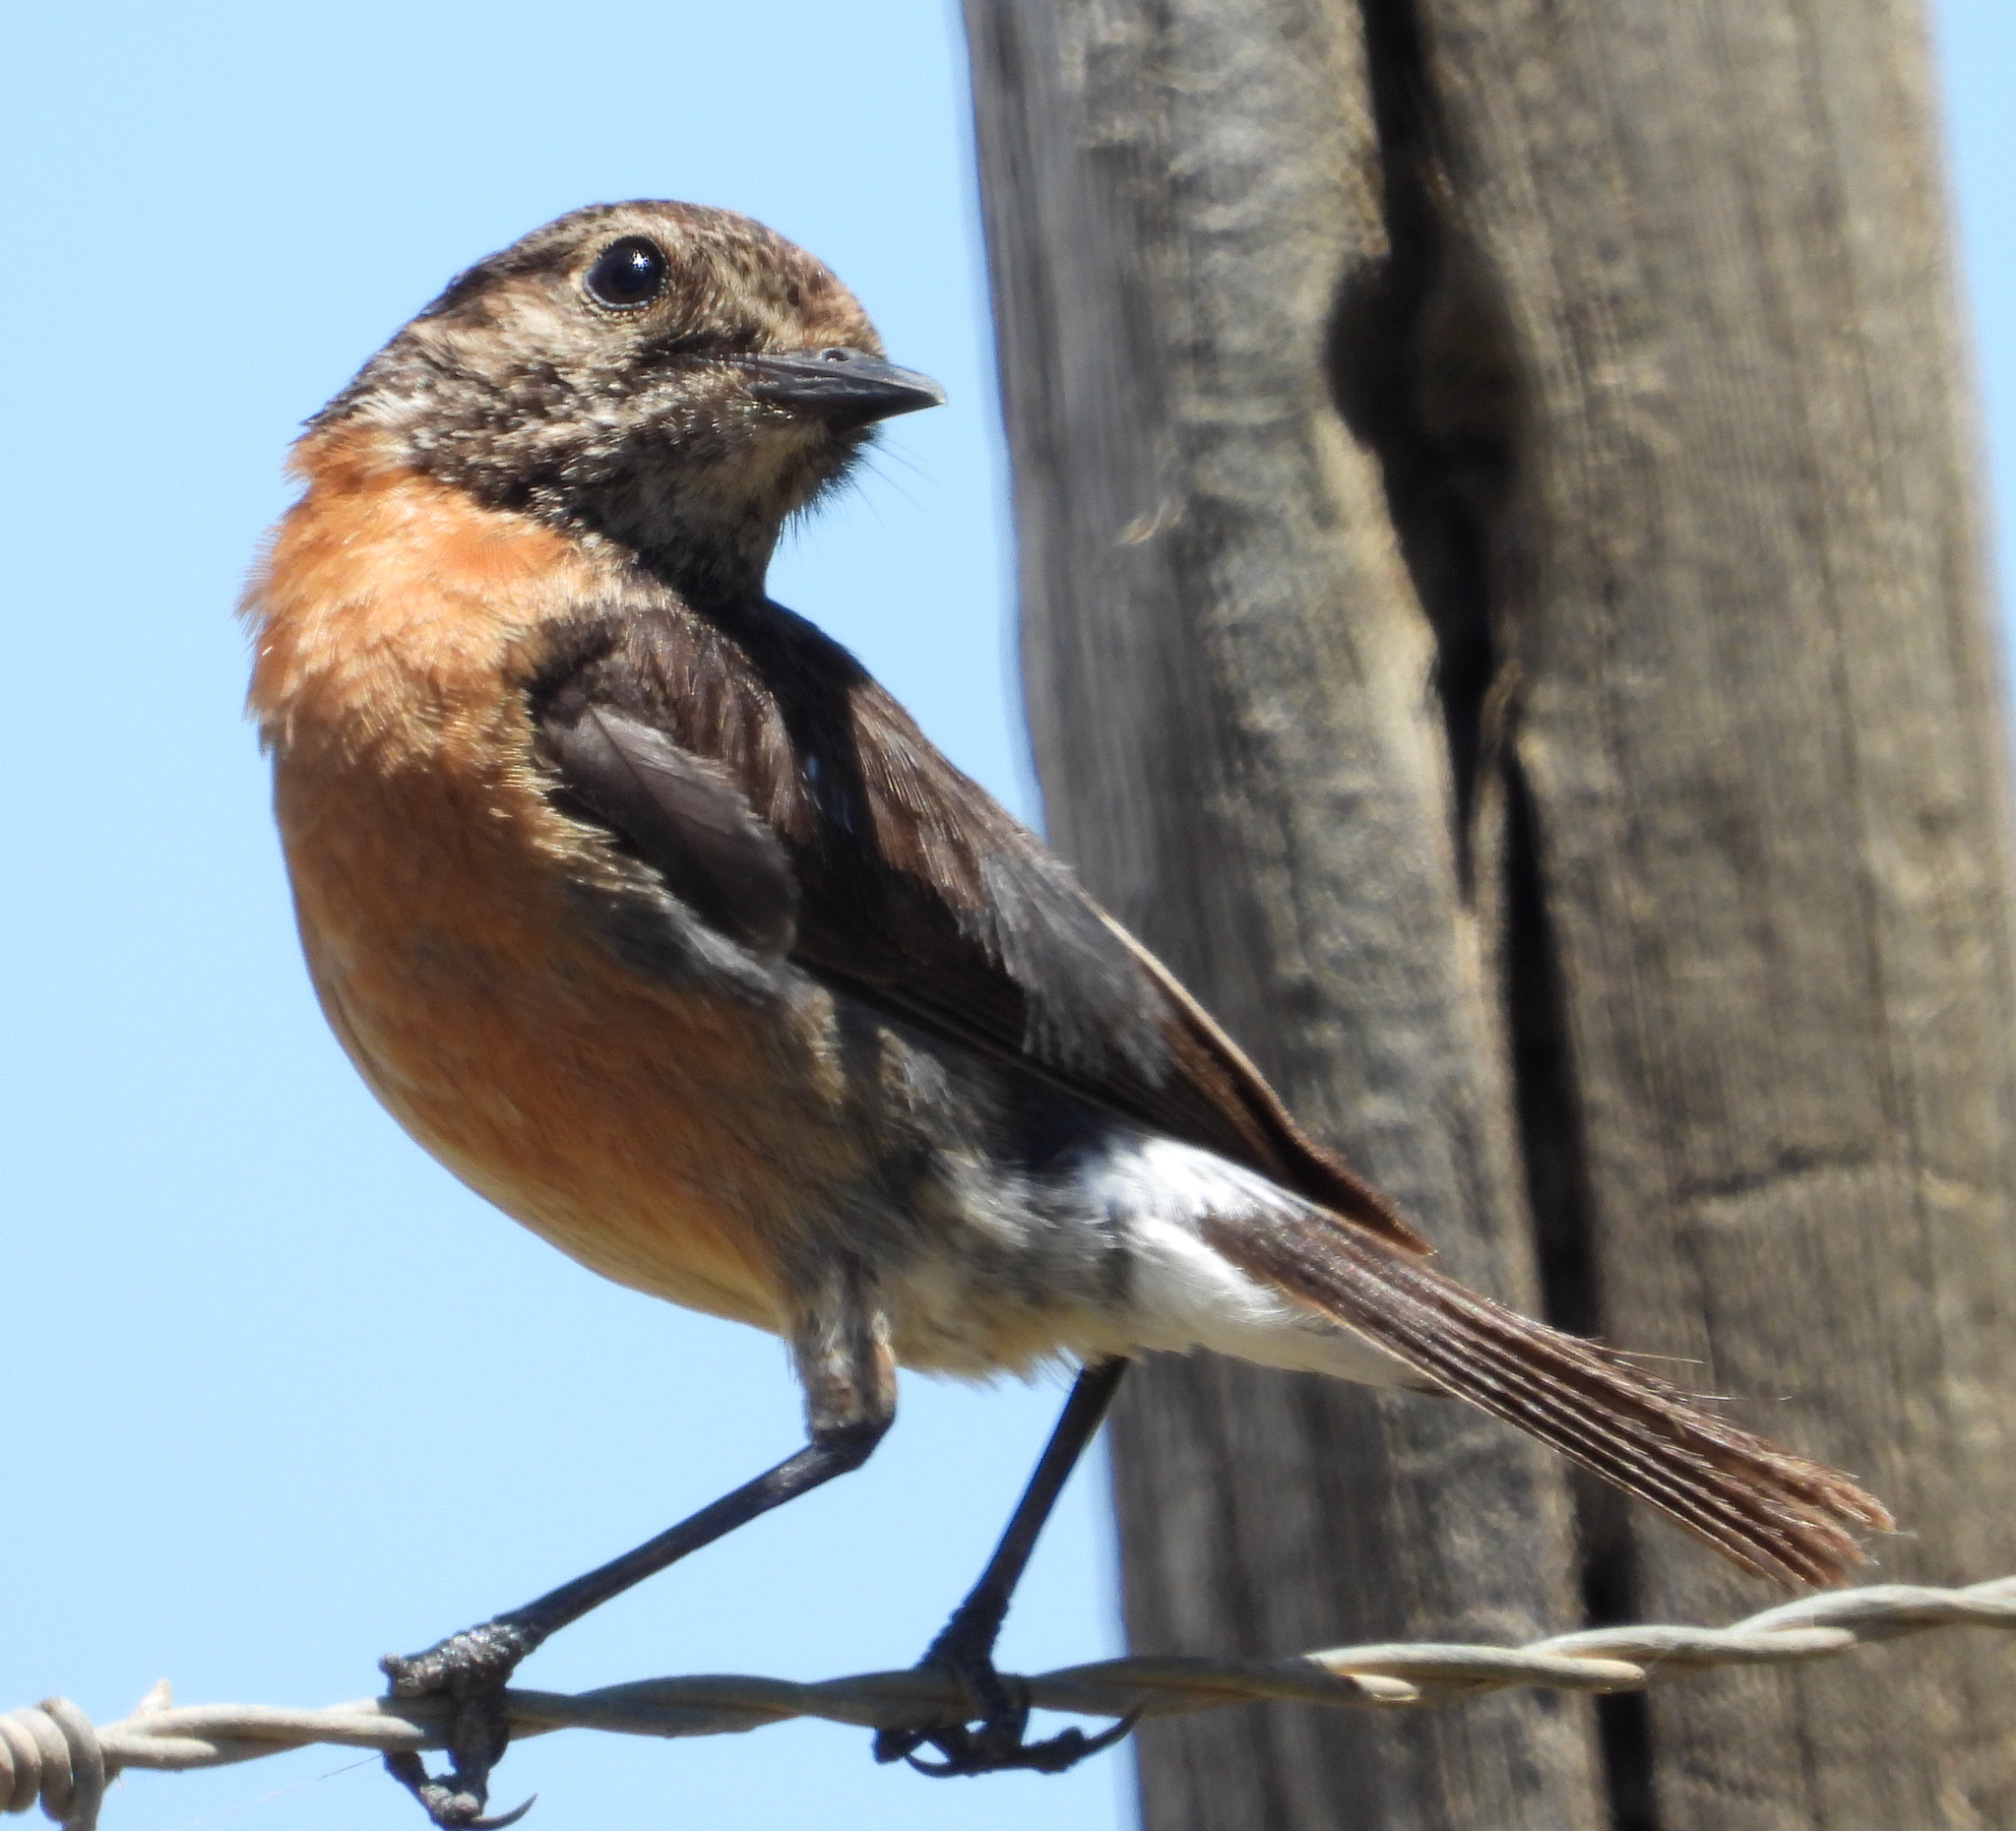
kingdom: Animalia
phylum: Chordata
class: Aves
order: Passeriformes
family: Muscicapidae
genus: Saxicola
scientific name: Saxicola torquatus
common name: African stonechat
